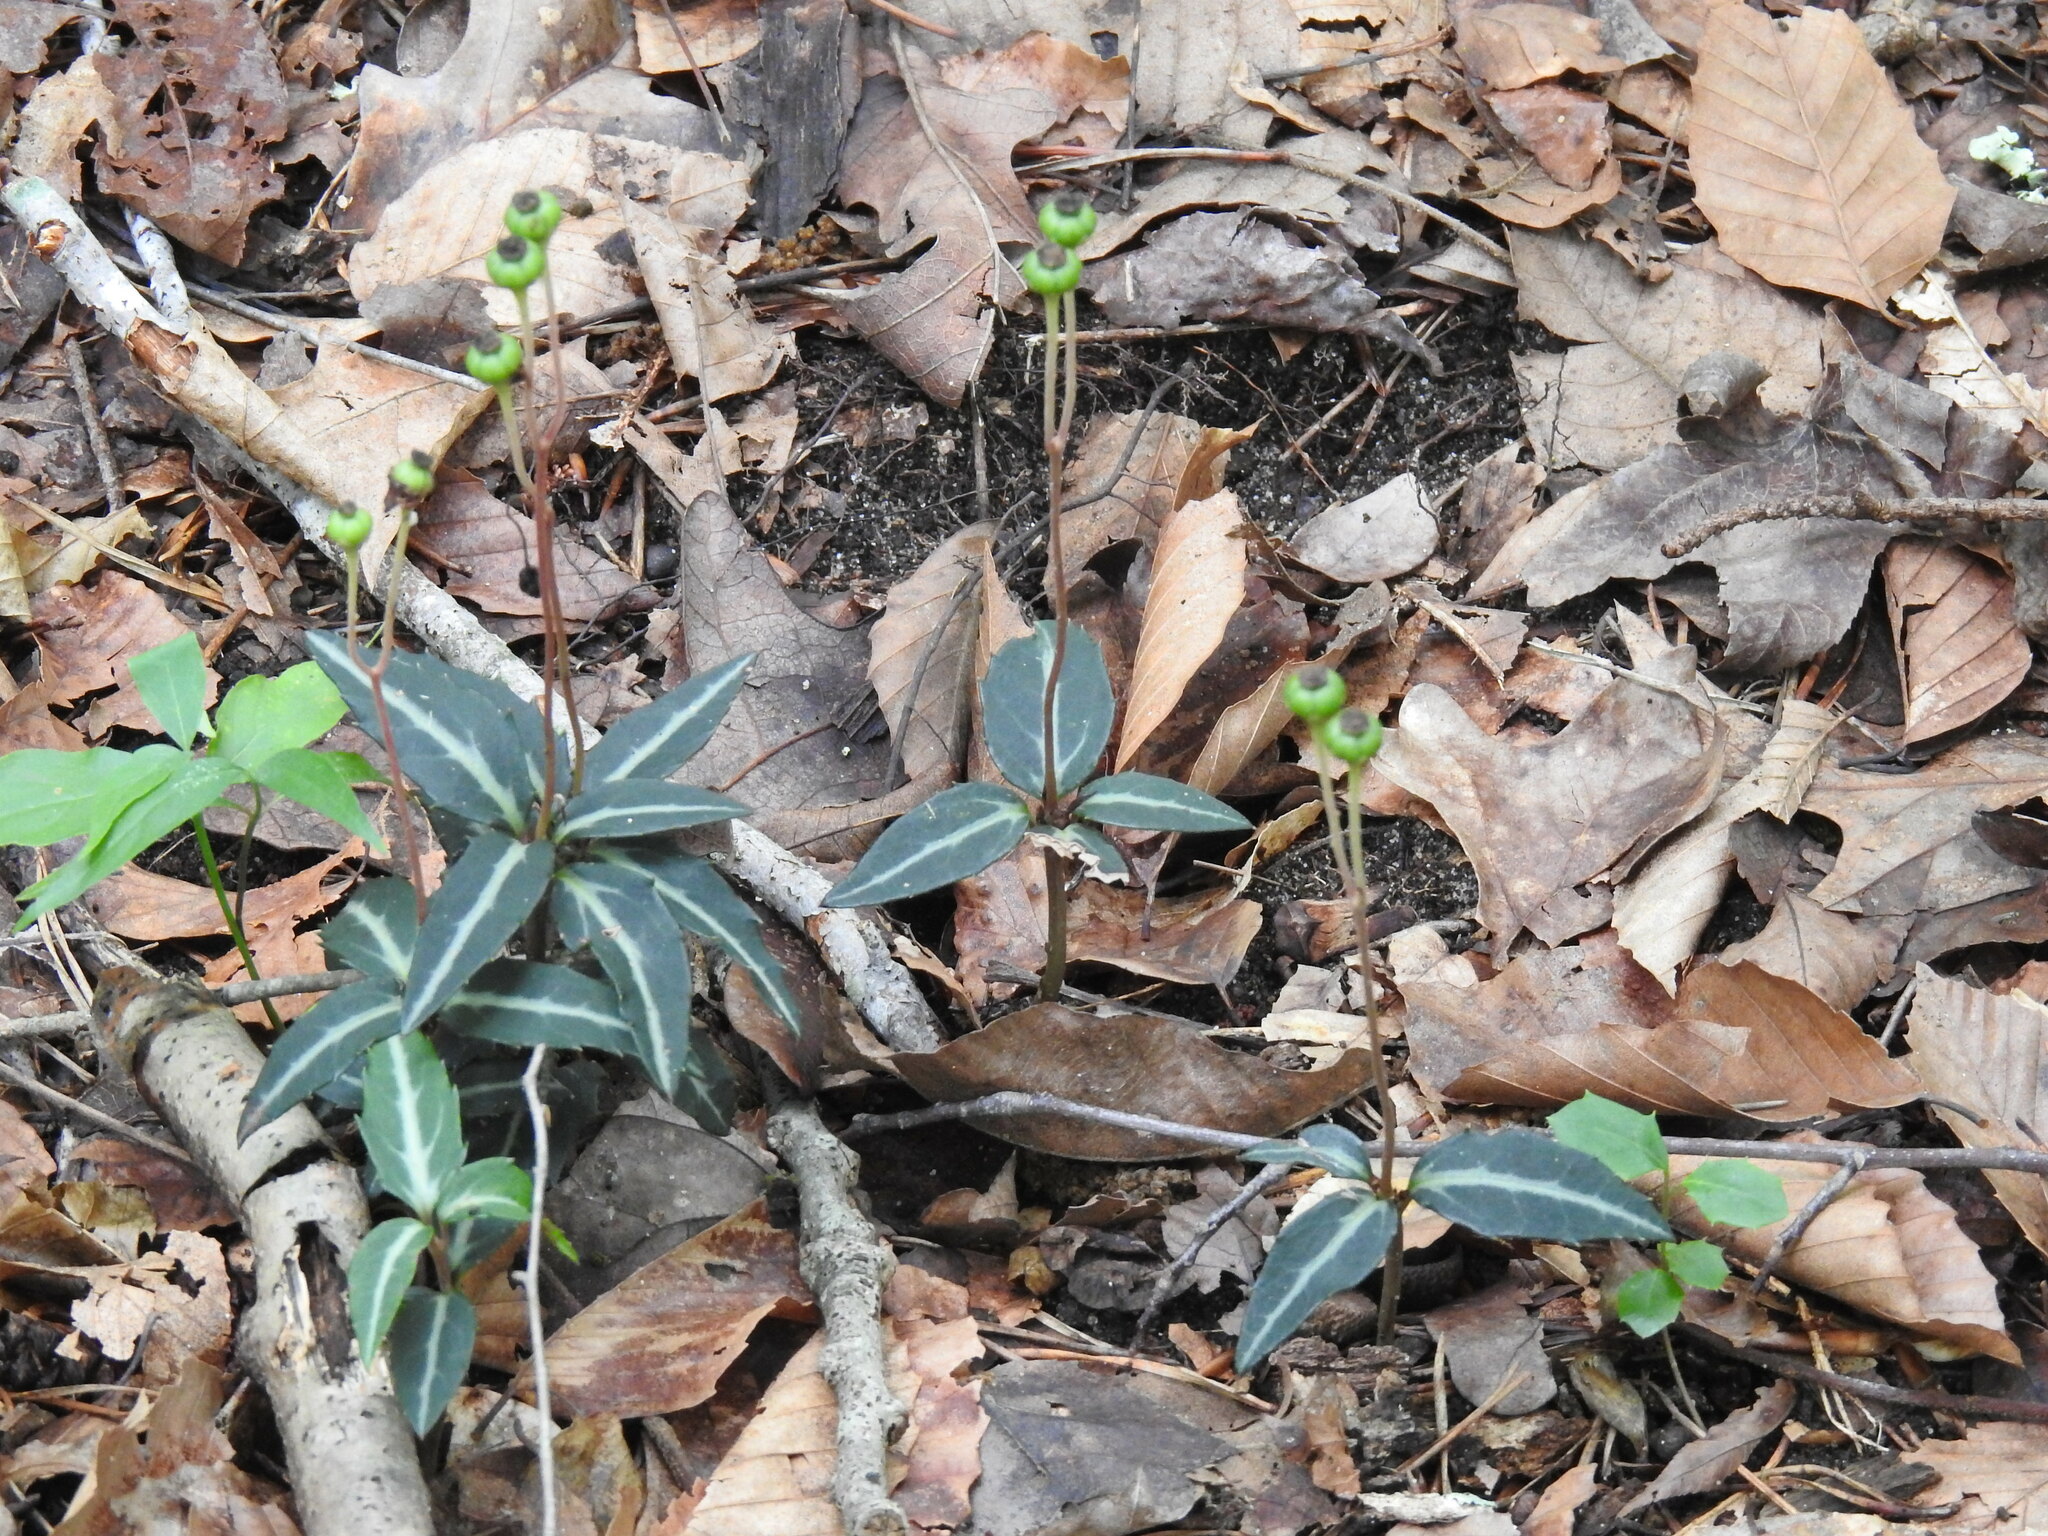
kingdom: Plantae
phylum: Tracheophyta
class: Magnoliopsida
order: Ericales
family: Ericaceae
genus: Chimaphila
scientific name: Chimaphila maculata
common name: Spotted pipsissewa
